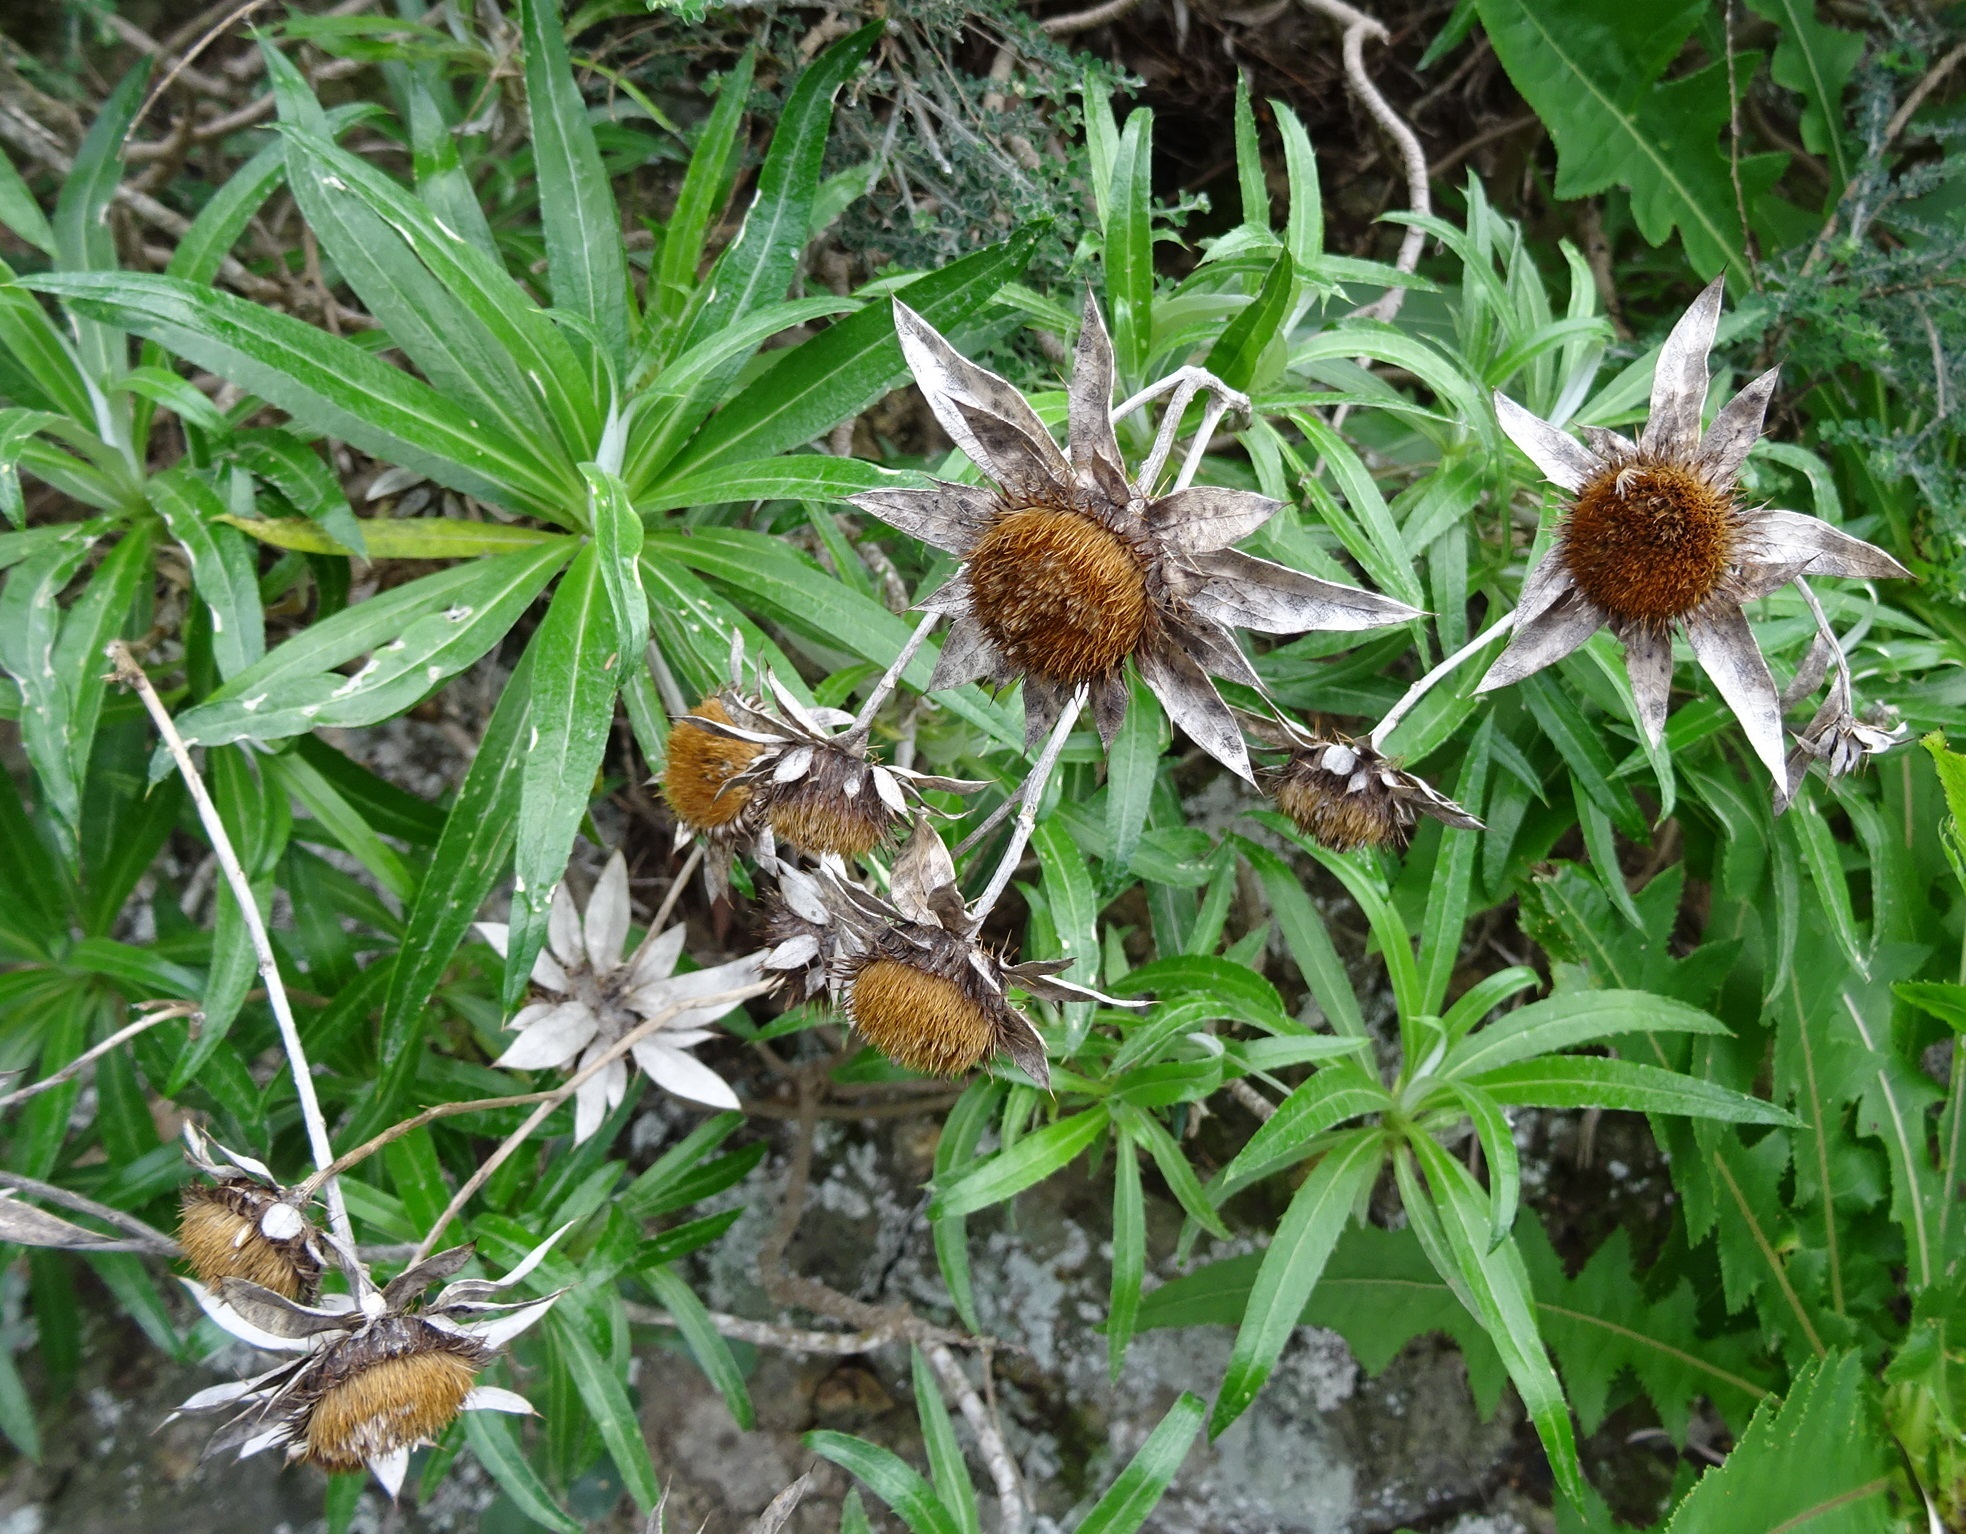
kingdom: Plantae
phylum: Tracheophyta
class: Magnoliopsida
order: Asterales
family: Asteraceae
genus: Carlina
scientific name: Carlina salicifolia
